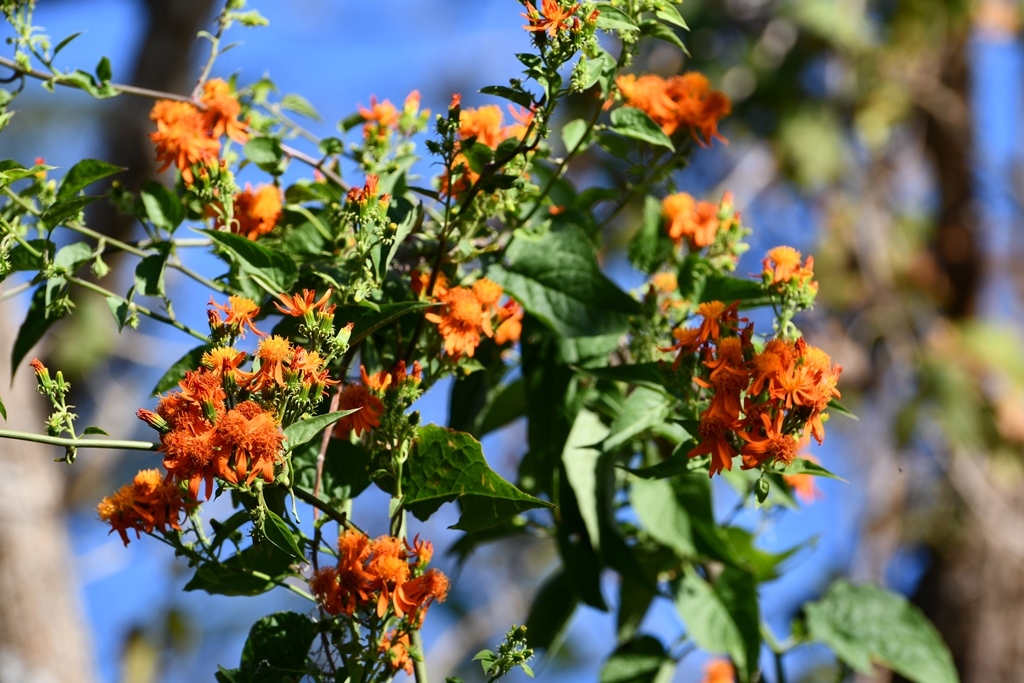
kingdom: Plantae
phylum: Tracheophyta
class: Magnoliopsida
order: Asterales
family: Asteraceae
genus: Pseudogynoxys
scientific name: Pseudogynoxys haenkei
